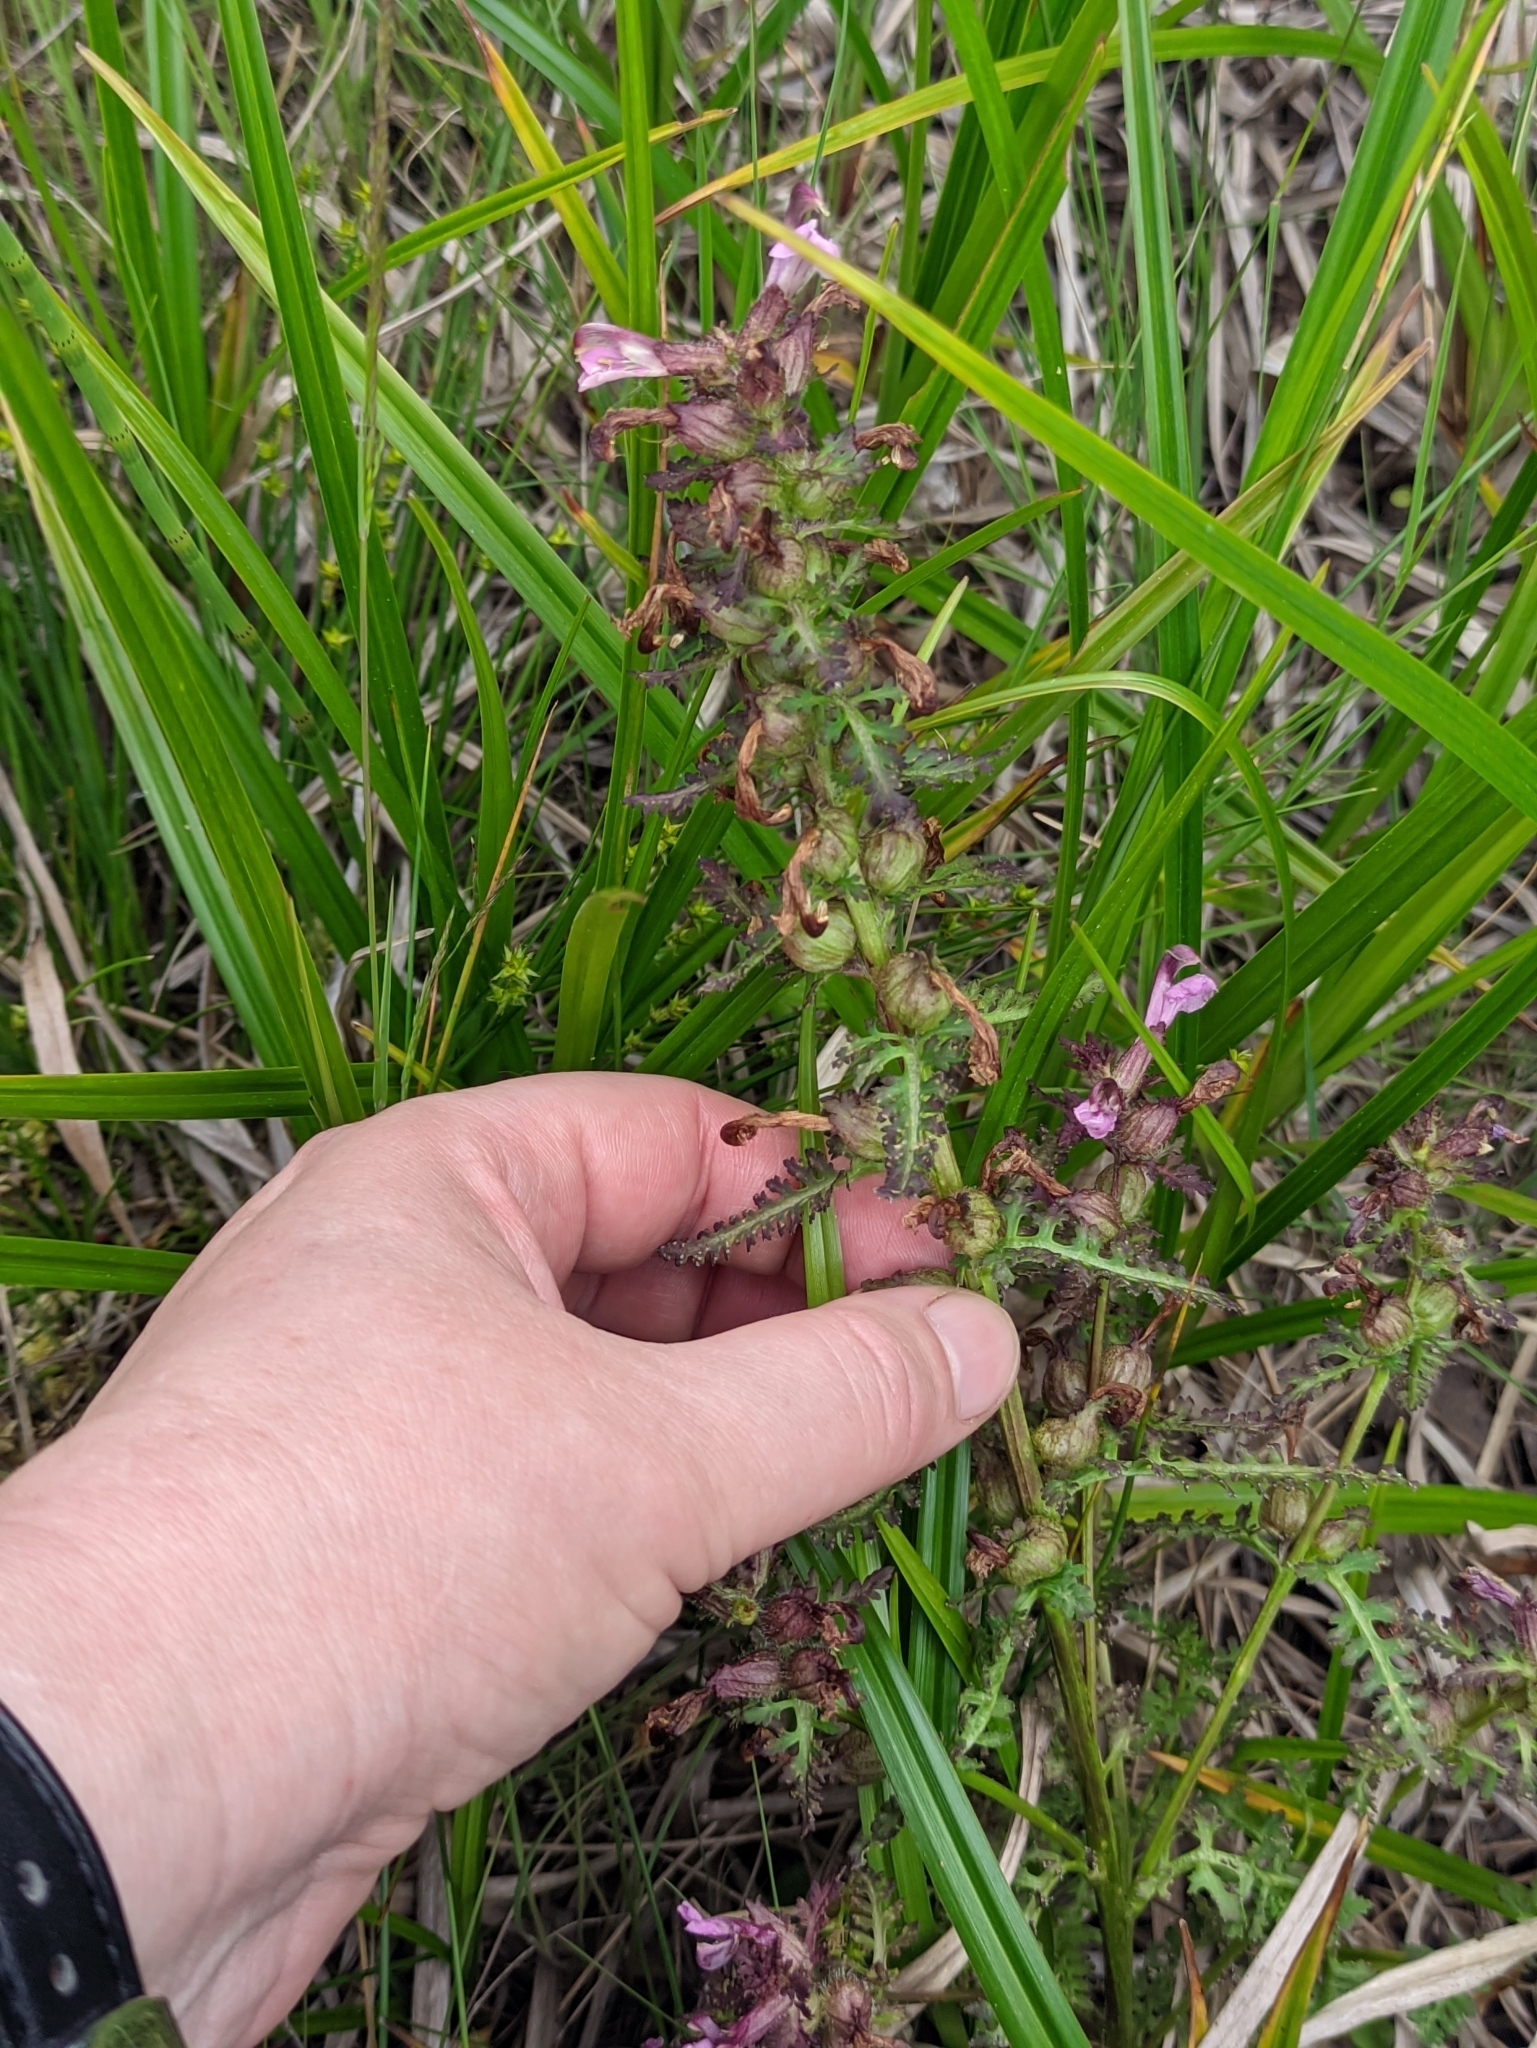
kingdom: Plantae
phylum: Tracheophyta
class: Magnoliopsida
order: Lamiales
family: Orobanchaceae
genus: Pedicularis
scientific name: Pedicularis palustris
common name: Marsh lousewort
